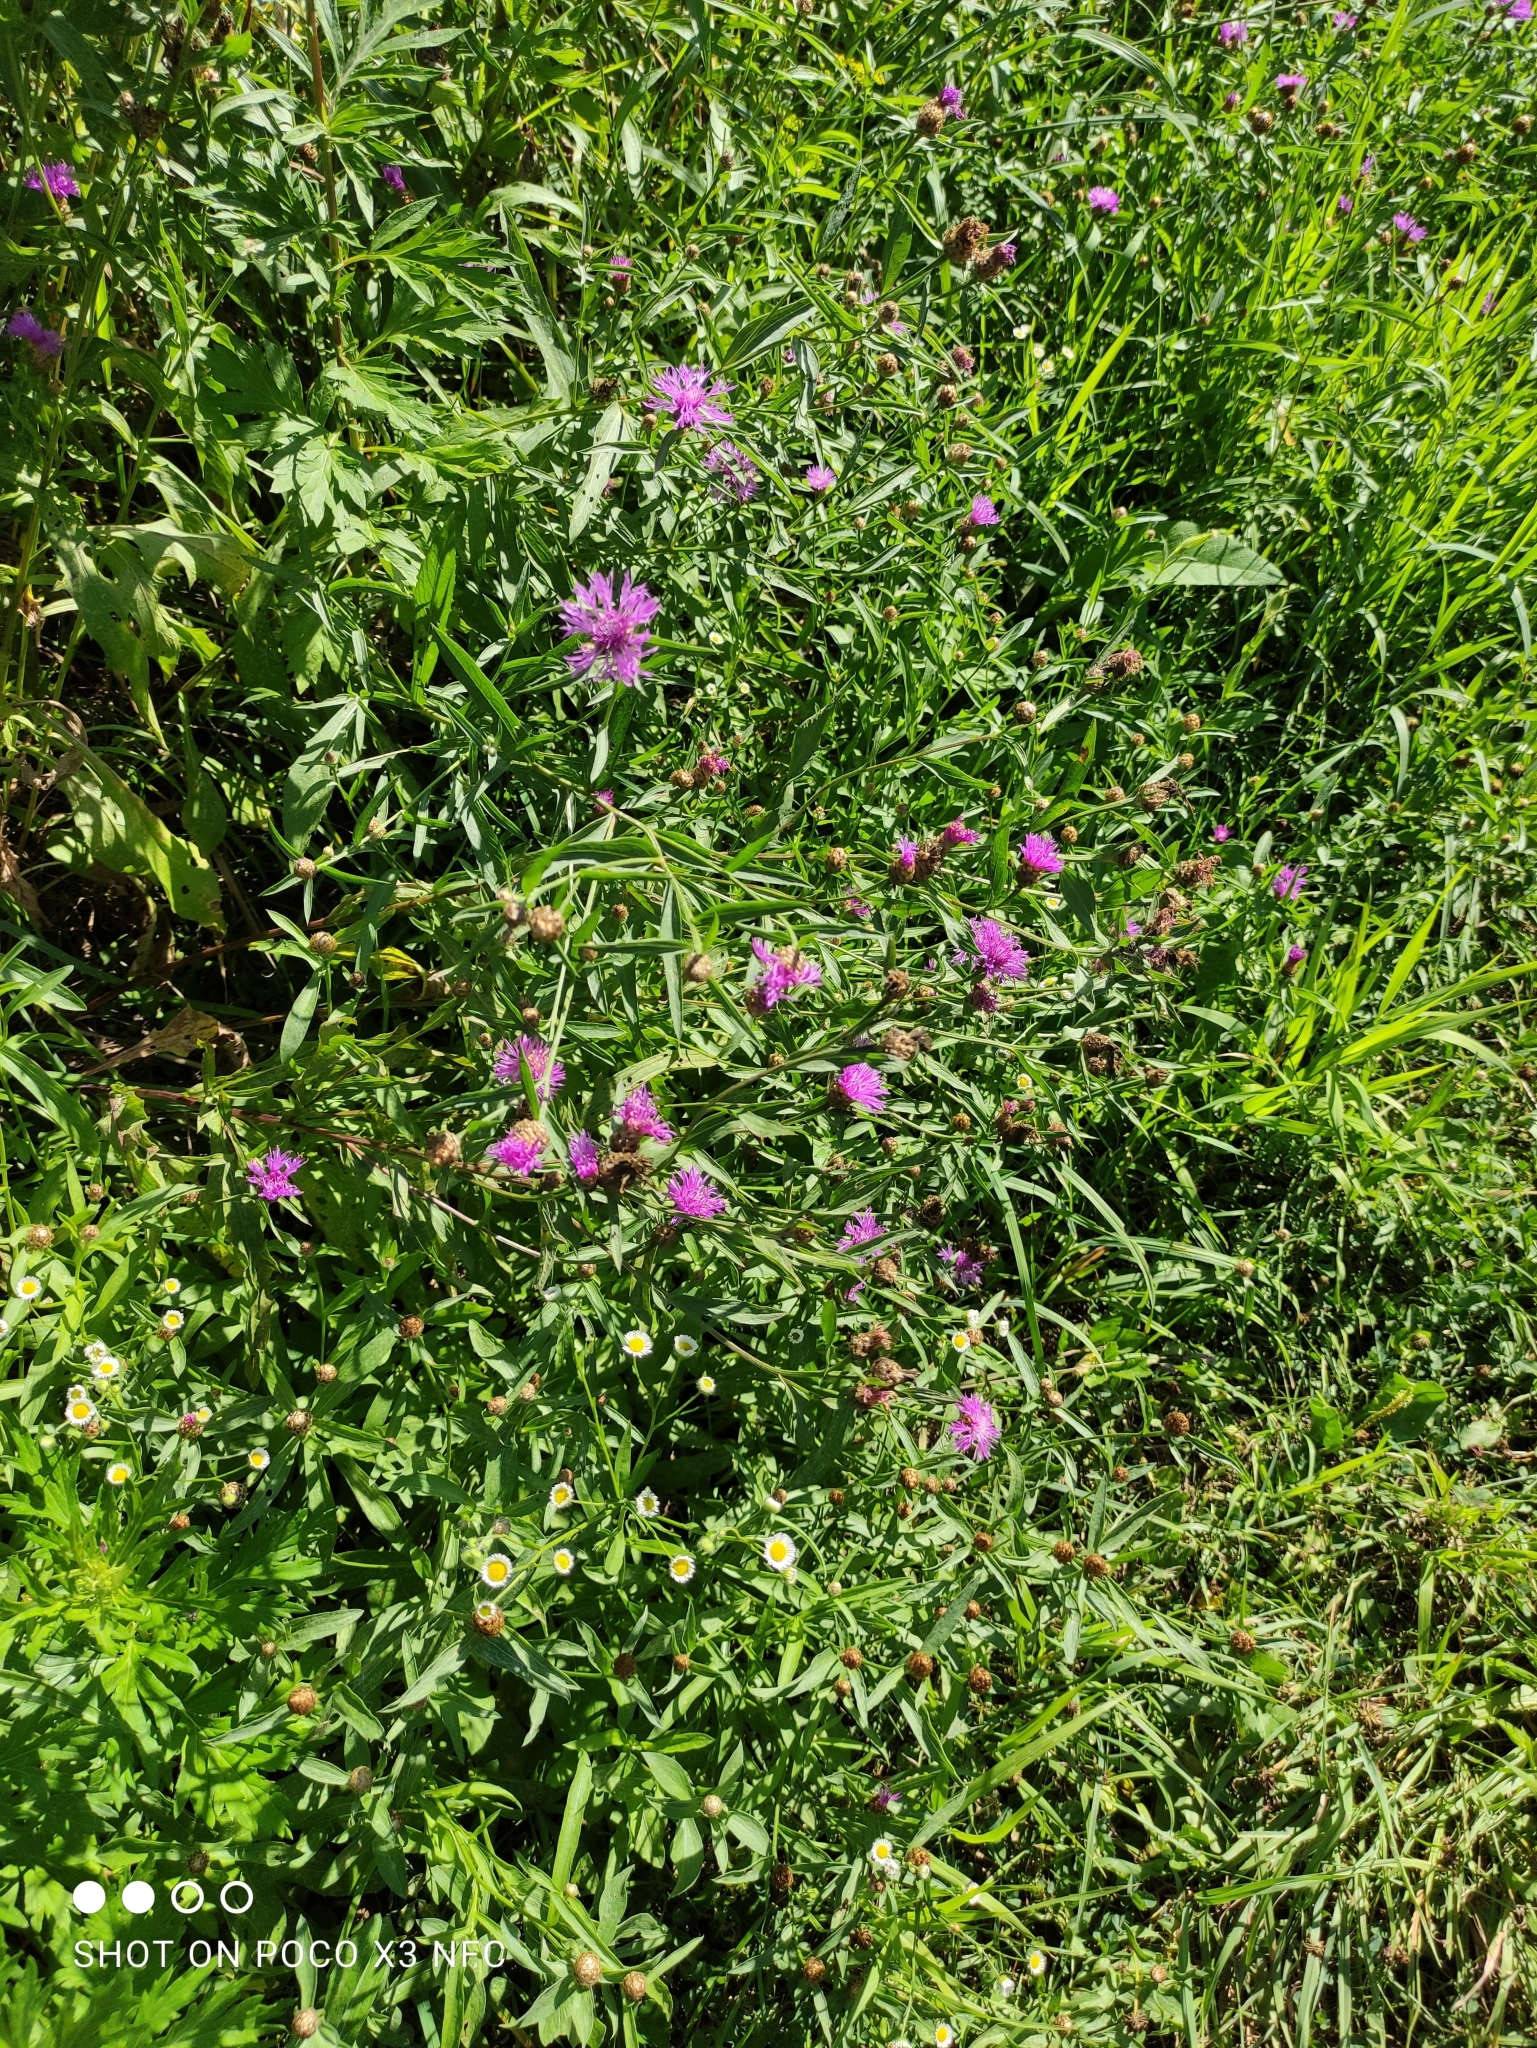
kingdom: Plantae
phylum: Tracheophyta
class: Magnoliopsida
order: Asterales
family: Asteraceae
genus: Centaurea
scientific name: Centaurea jacea
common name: Brown knapweed
